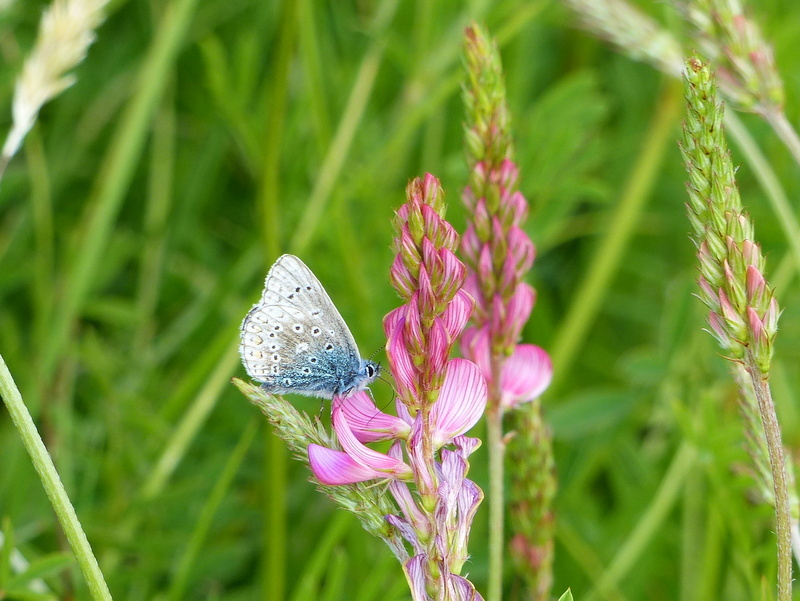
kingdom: Animalia
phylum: Arthropoda
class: Insecta
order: Lepidoptera
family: Lycaenidae
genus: Polyommatus
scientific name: Polyommatus icarus
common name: Common blue
